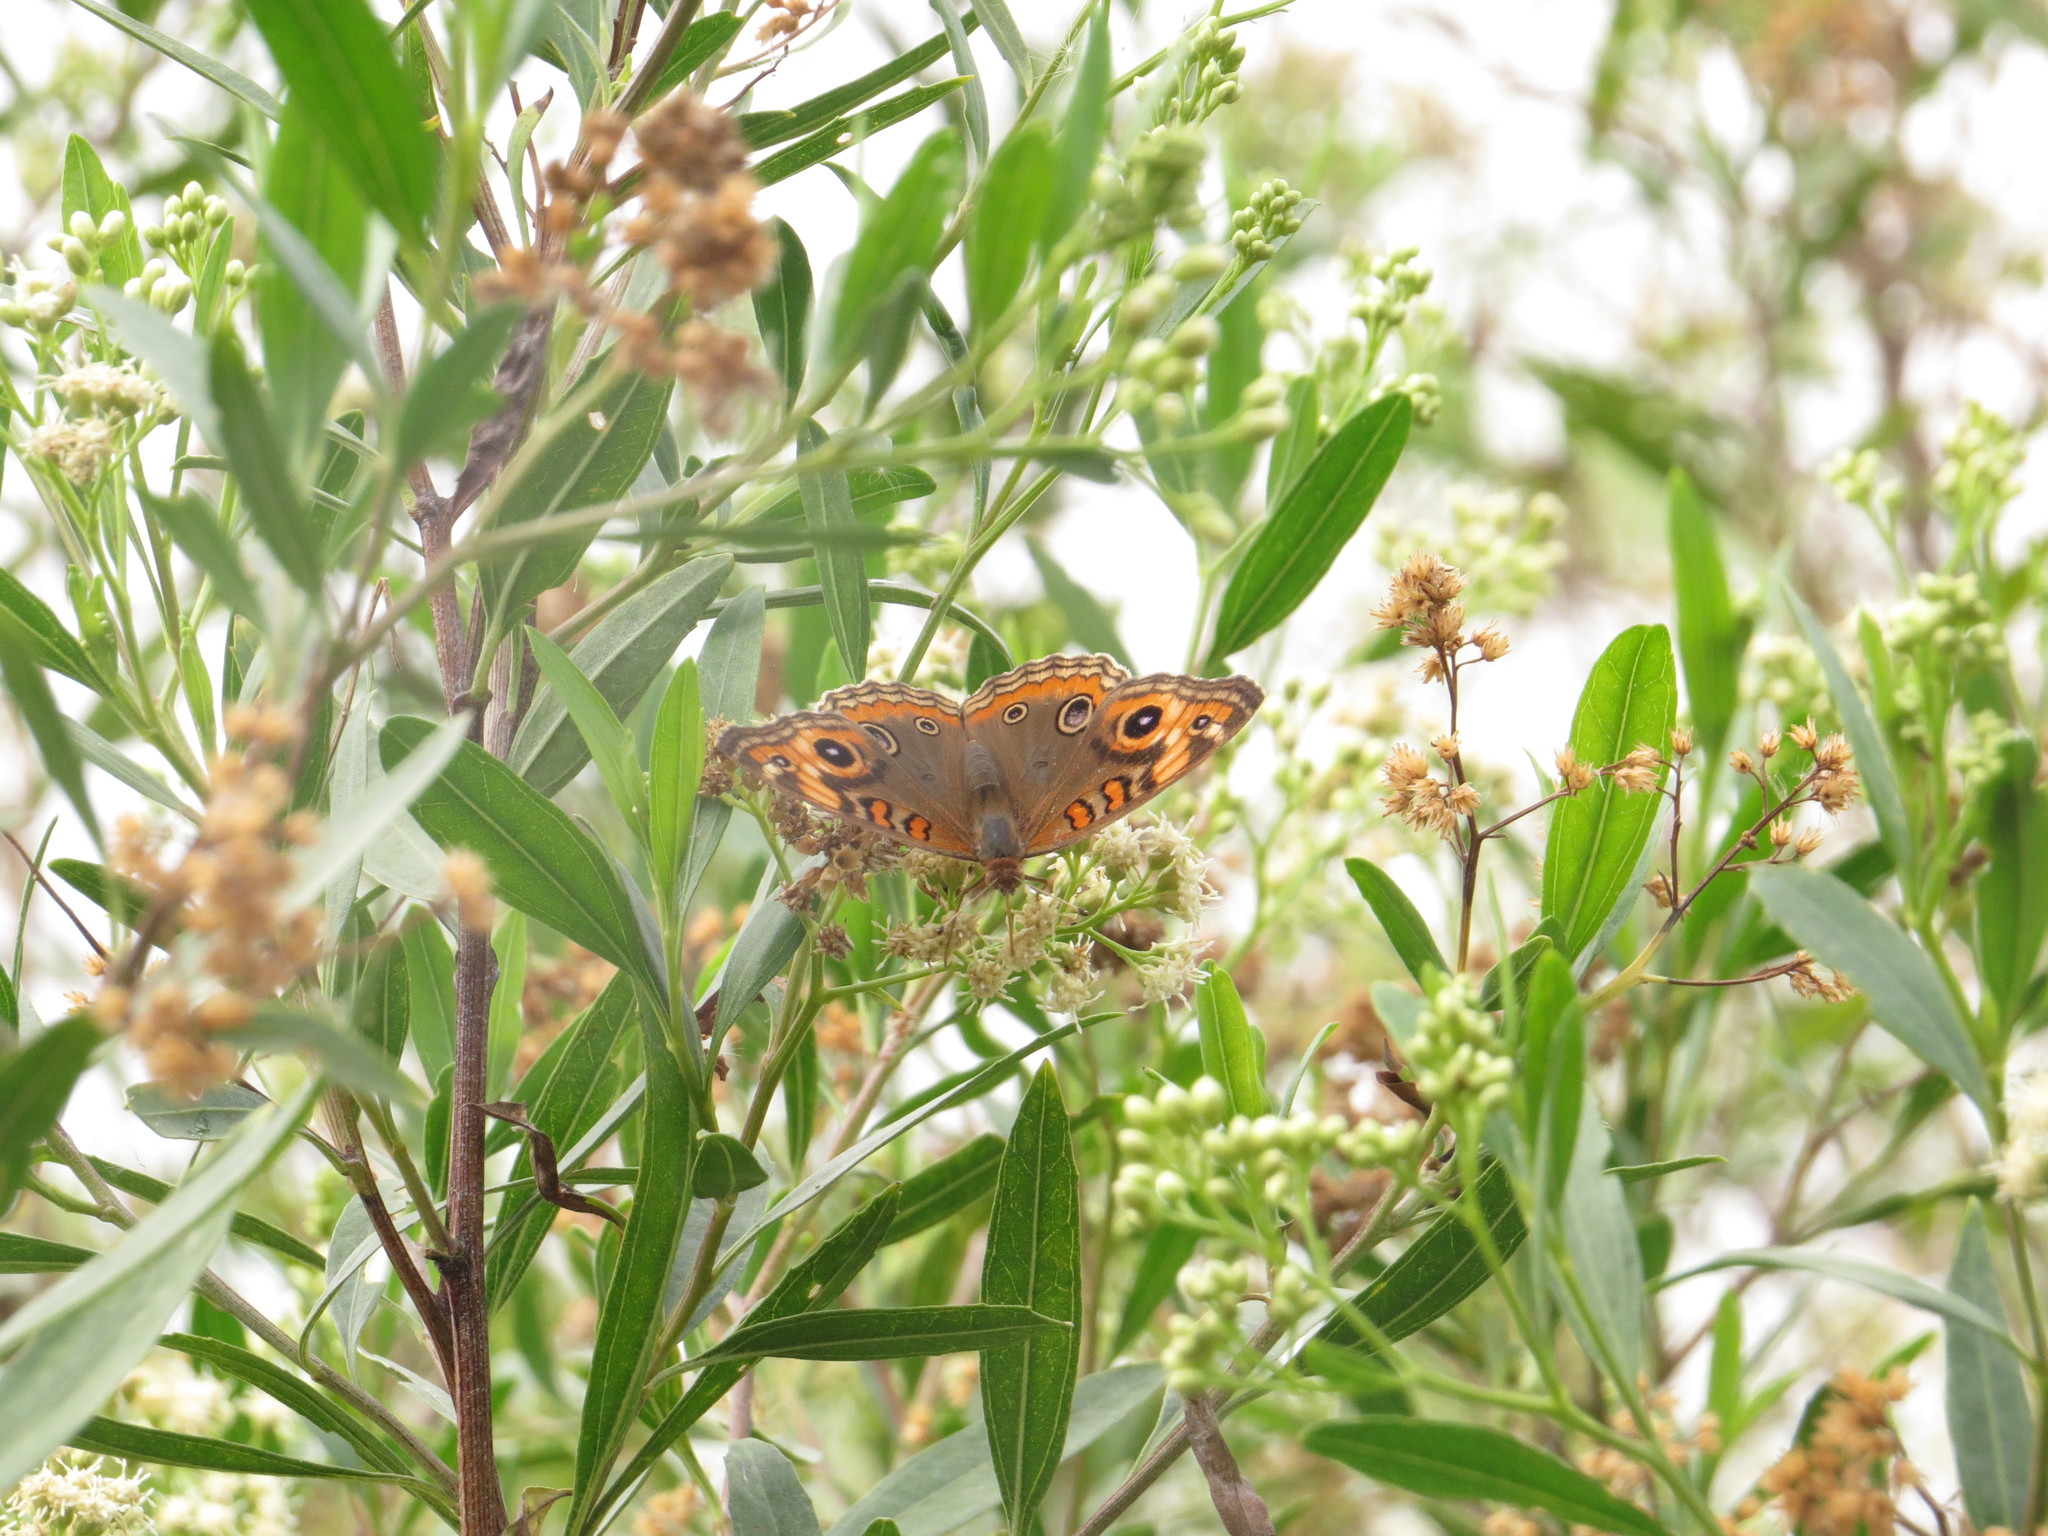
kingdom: Animalia
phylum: Arthropoda
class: Insecta
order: Lepidoptera
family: Nymphalidae
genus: Junonia
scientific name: Junonia lavinia
